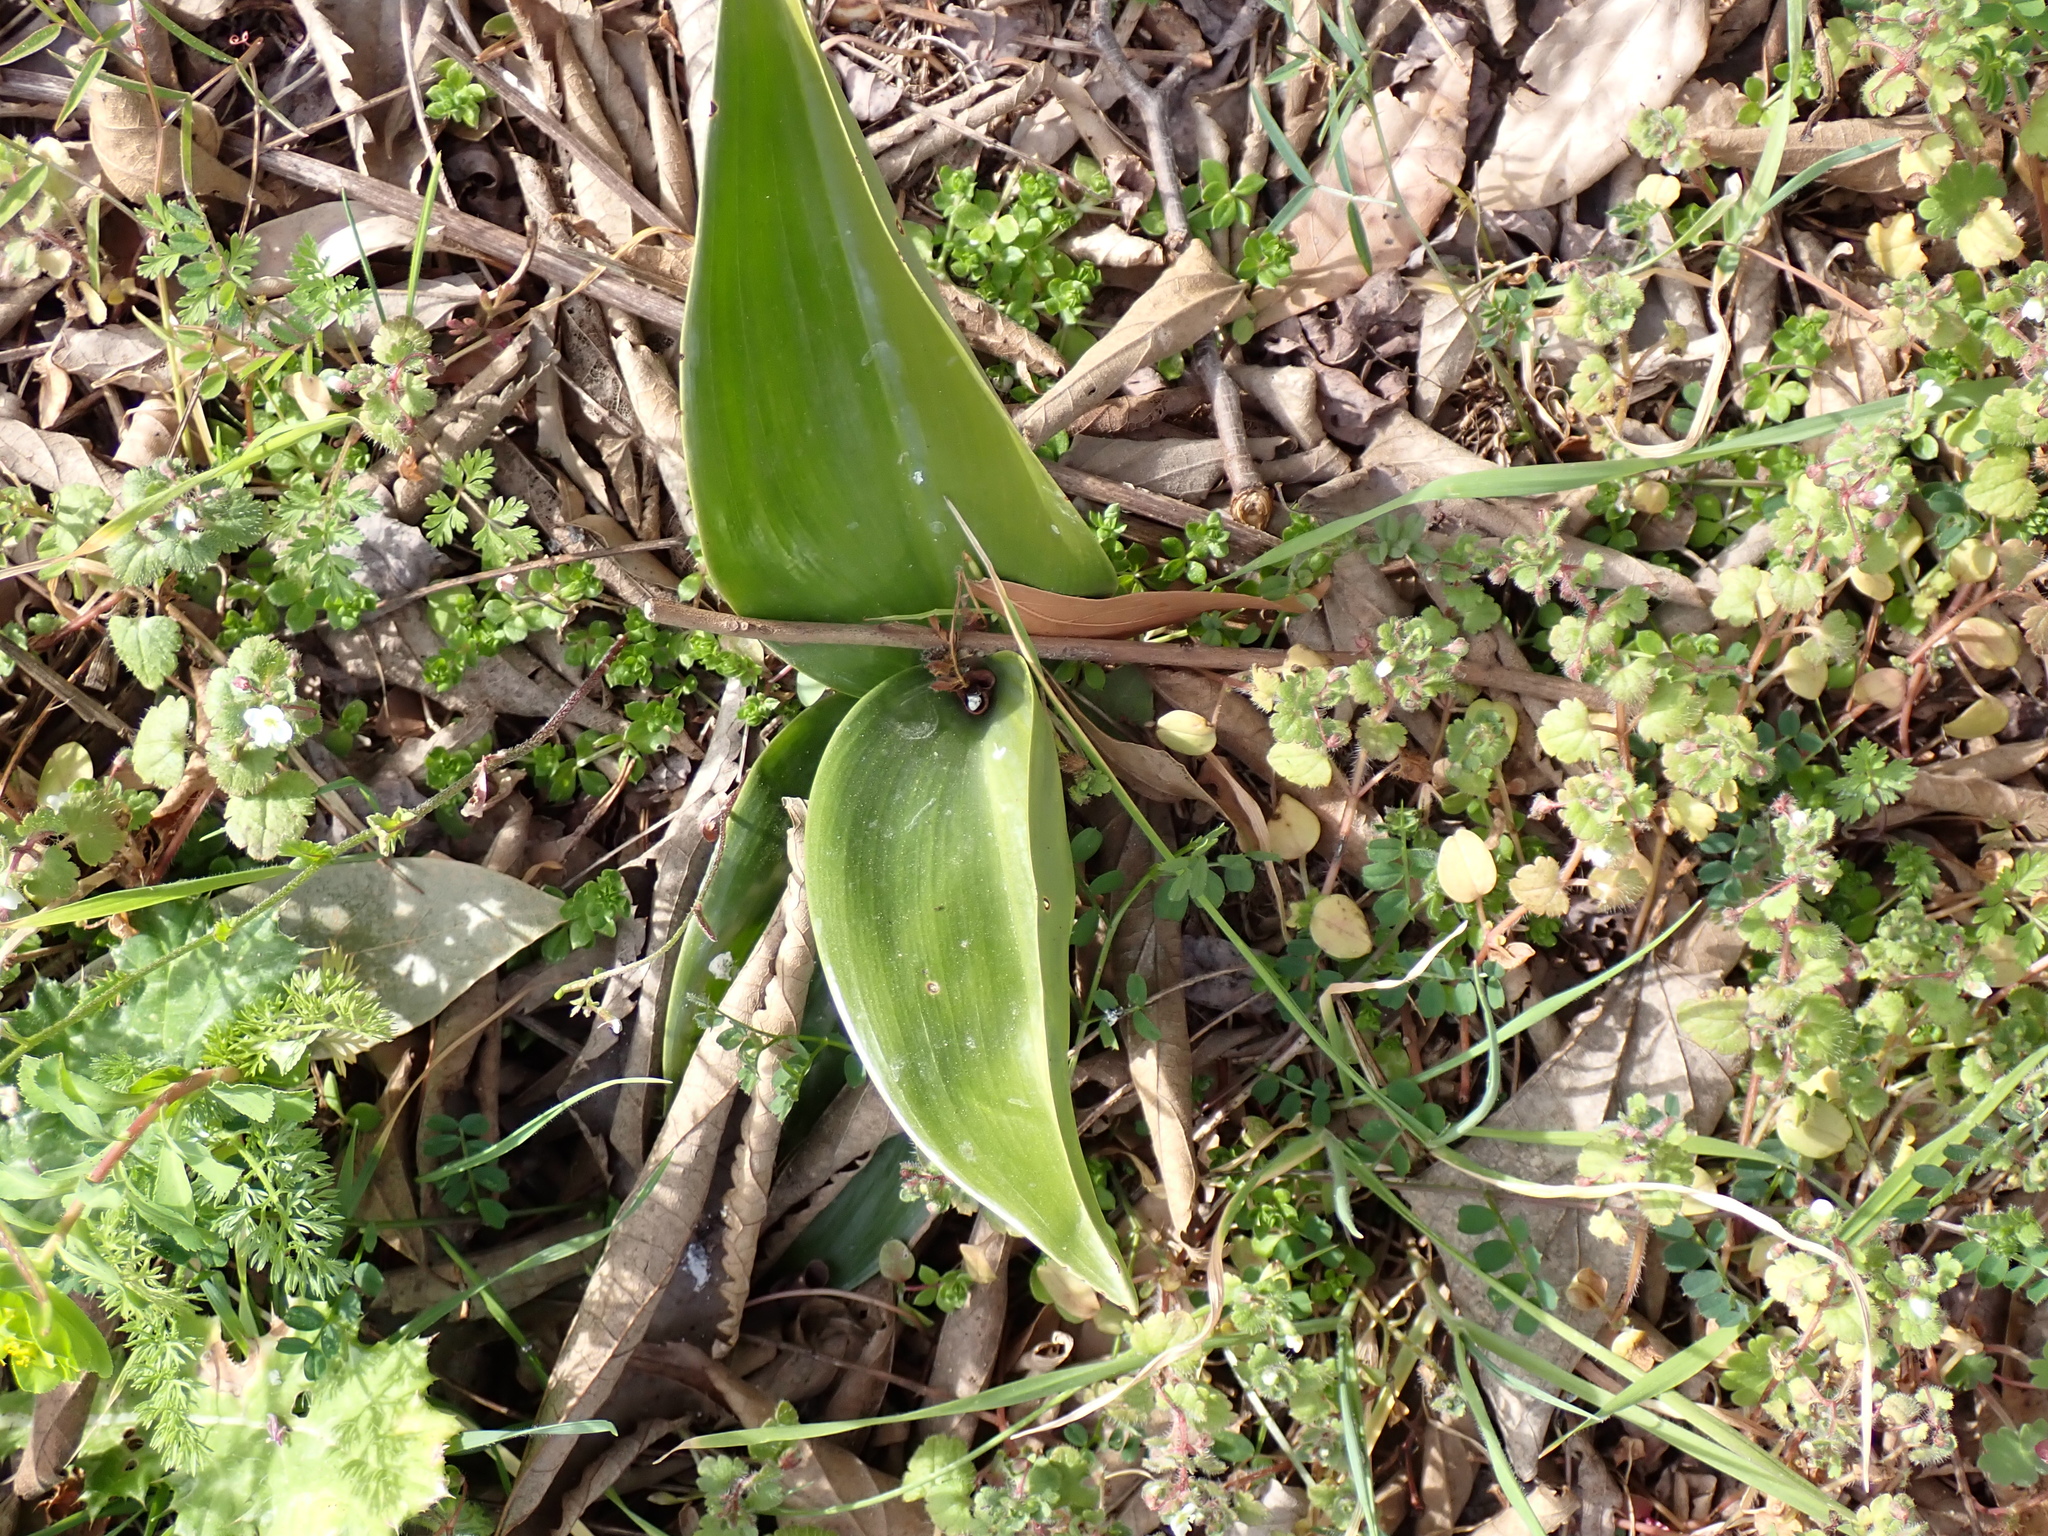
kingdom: Plantae
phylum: Tracheophyta
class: Liliopsida
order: Asparagales
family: Orchidaceae
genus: Himantoglossum
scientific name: Himantoglossum robertianum
